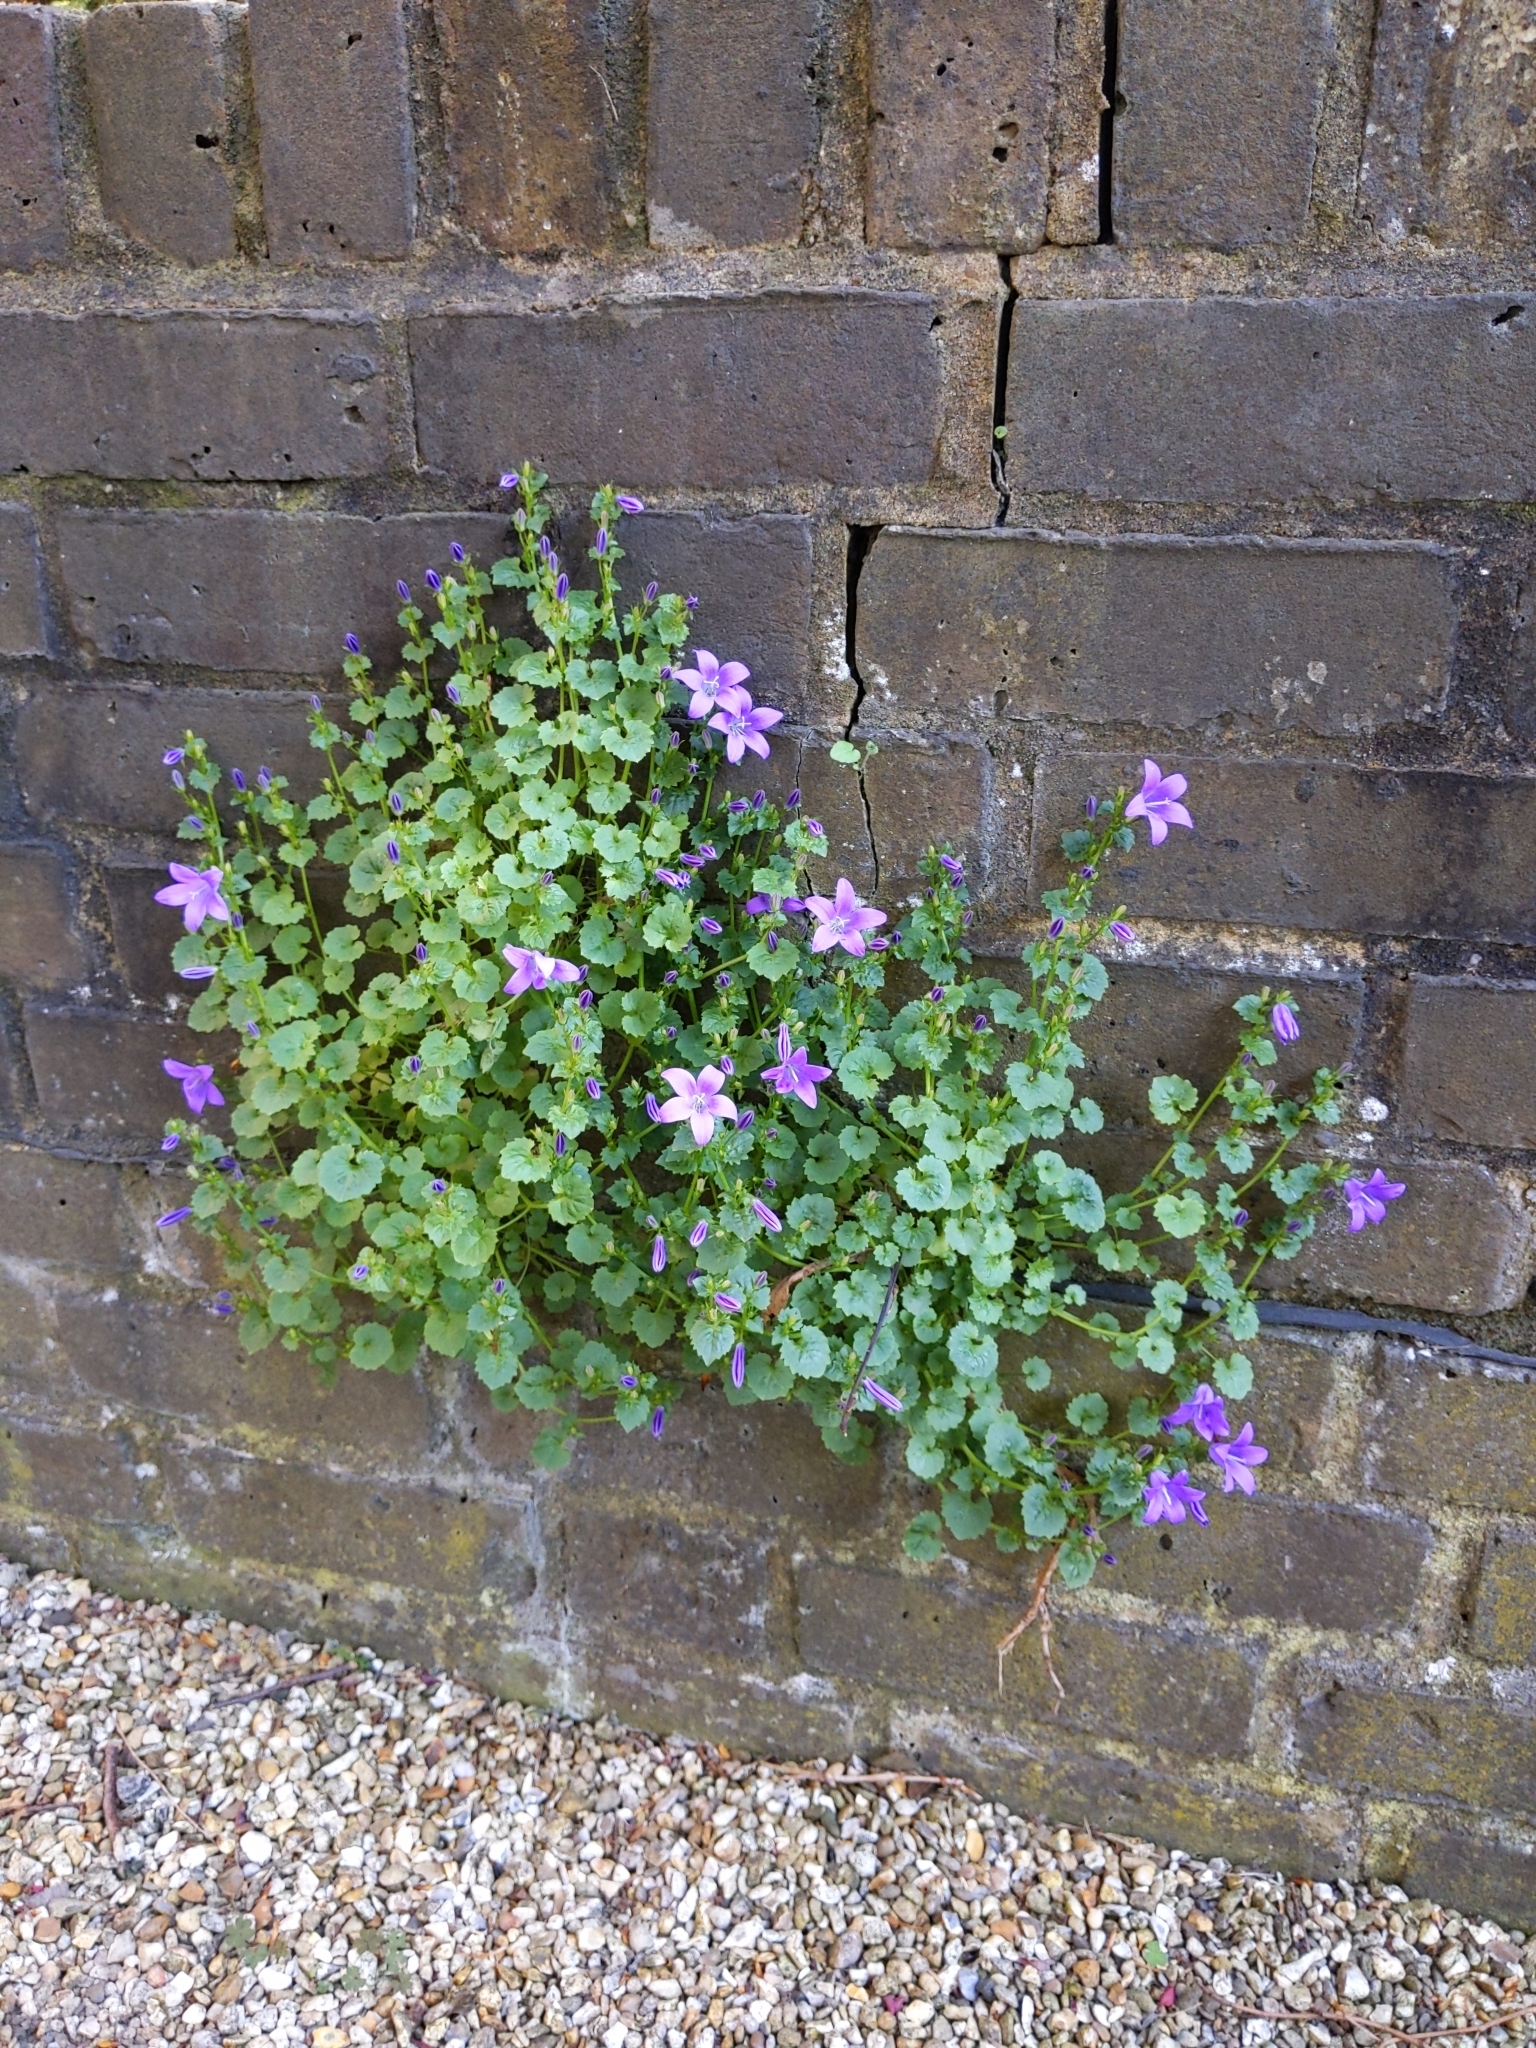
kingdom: Plantae
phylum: Tracheophyta
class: Magnoliopsida
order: Asterales
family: Campanulaceae
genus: Campanula
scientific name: Campanula poscharskyana
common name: Trailing bellflower
